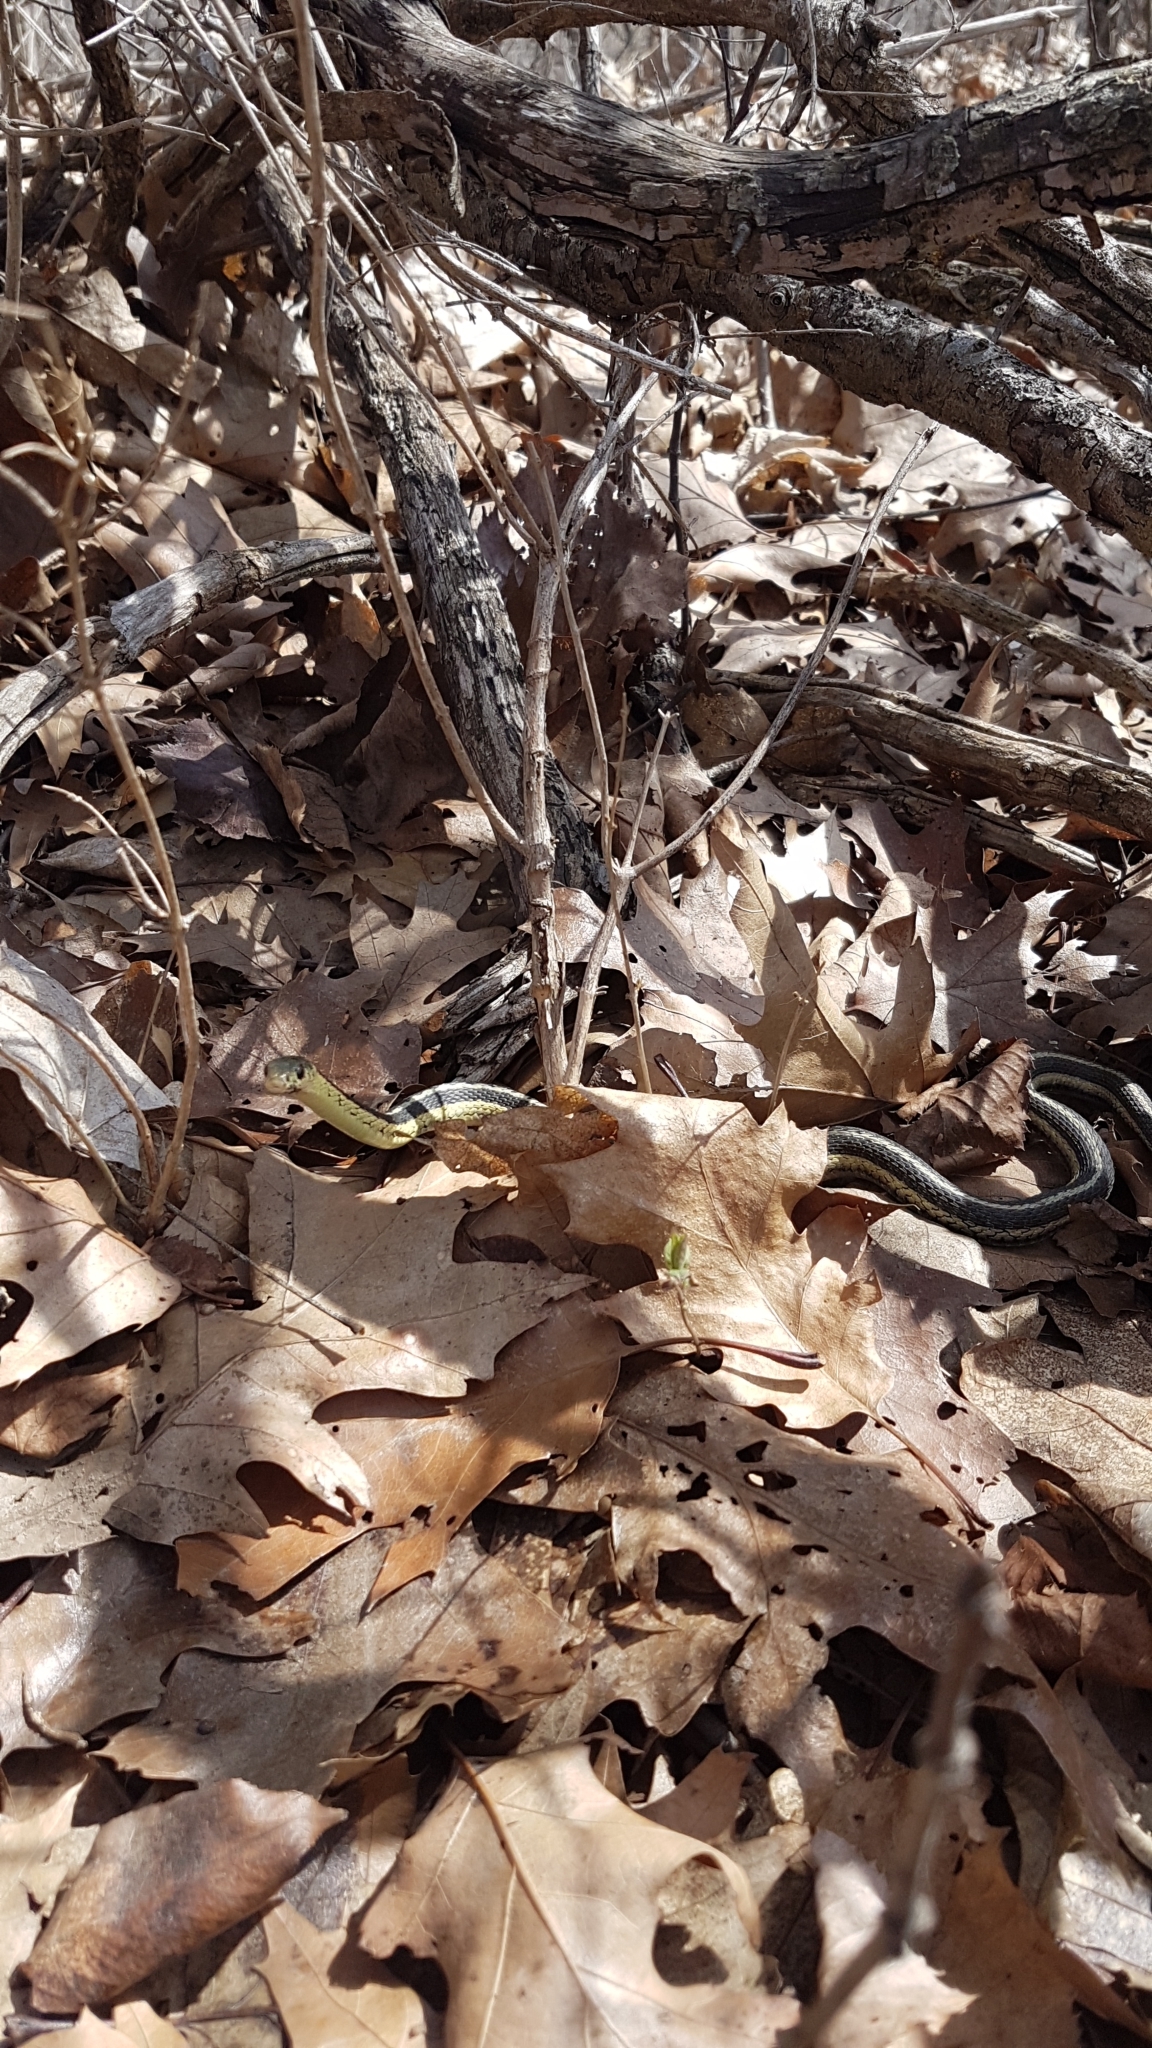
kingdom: Animalia
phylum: Chordata
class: Squamata
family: Colubridae
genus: Thamnophis
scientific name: Thamnophis sirtalis
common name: Common garter snake
